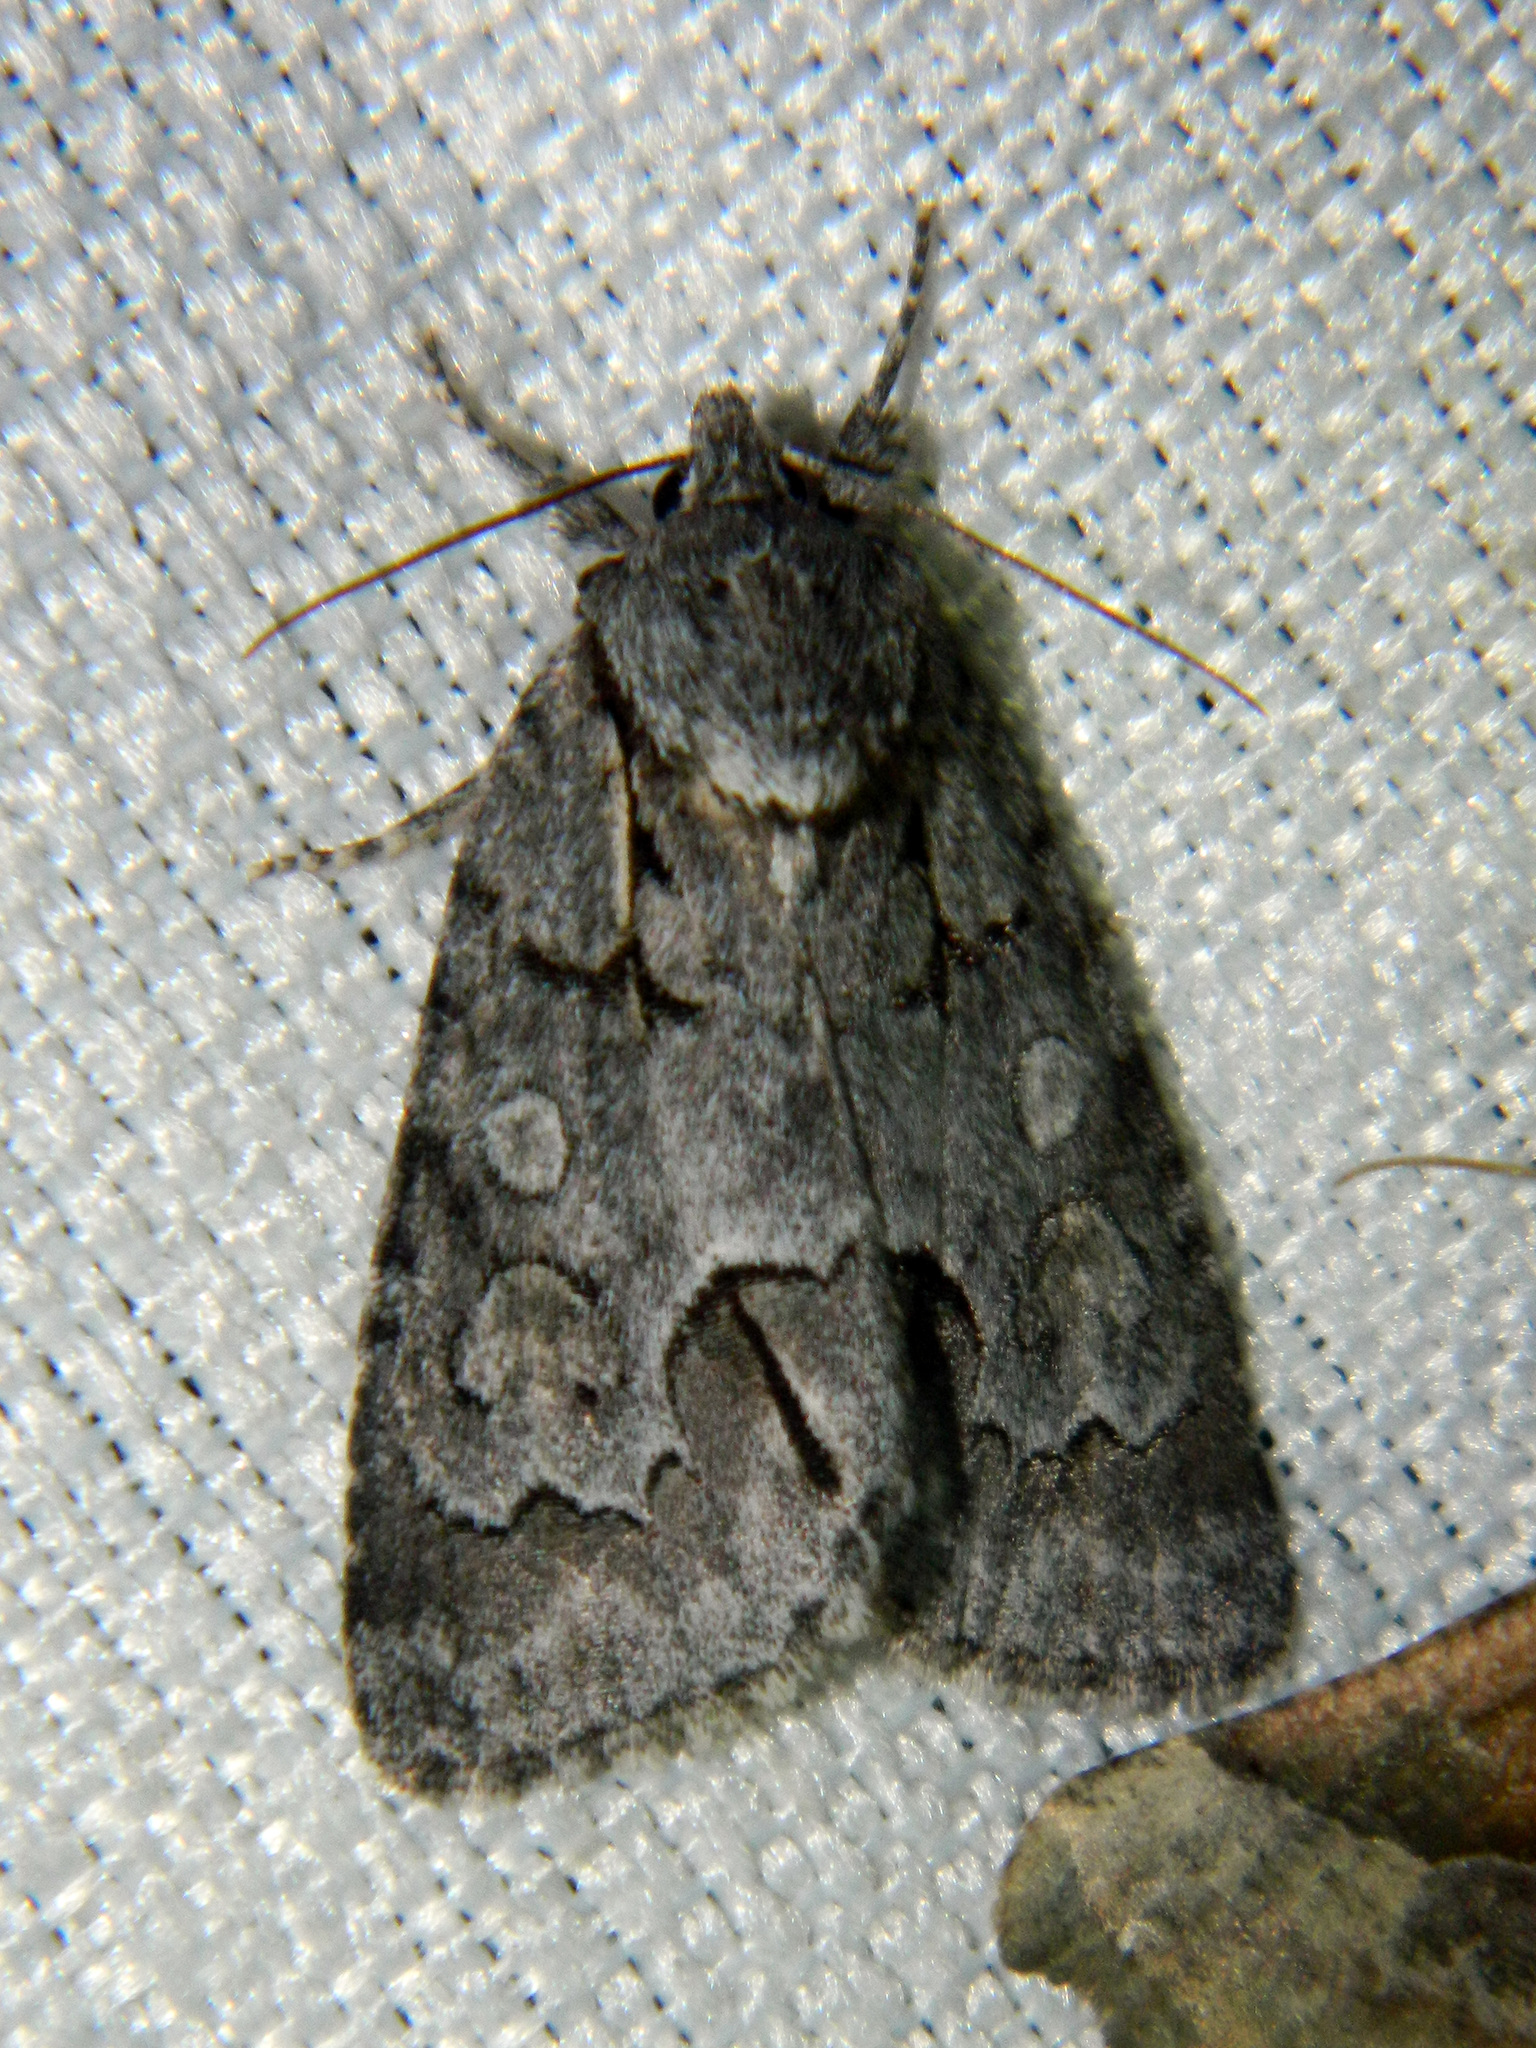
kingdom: Animalia
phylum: Arthropoda
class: Insecta
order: Lepidoptera
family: Noctuidae
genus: Acronicta
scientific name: Acronicta grisea
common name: Gray dagger
